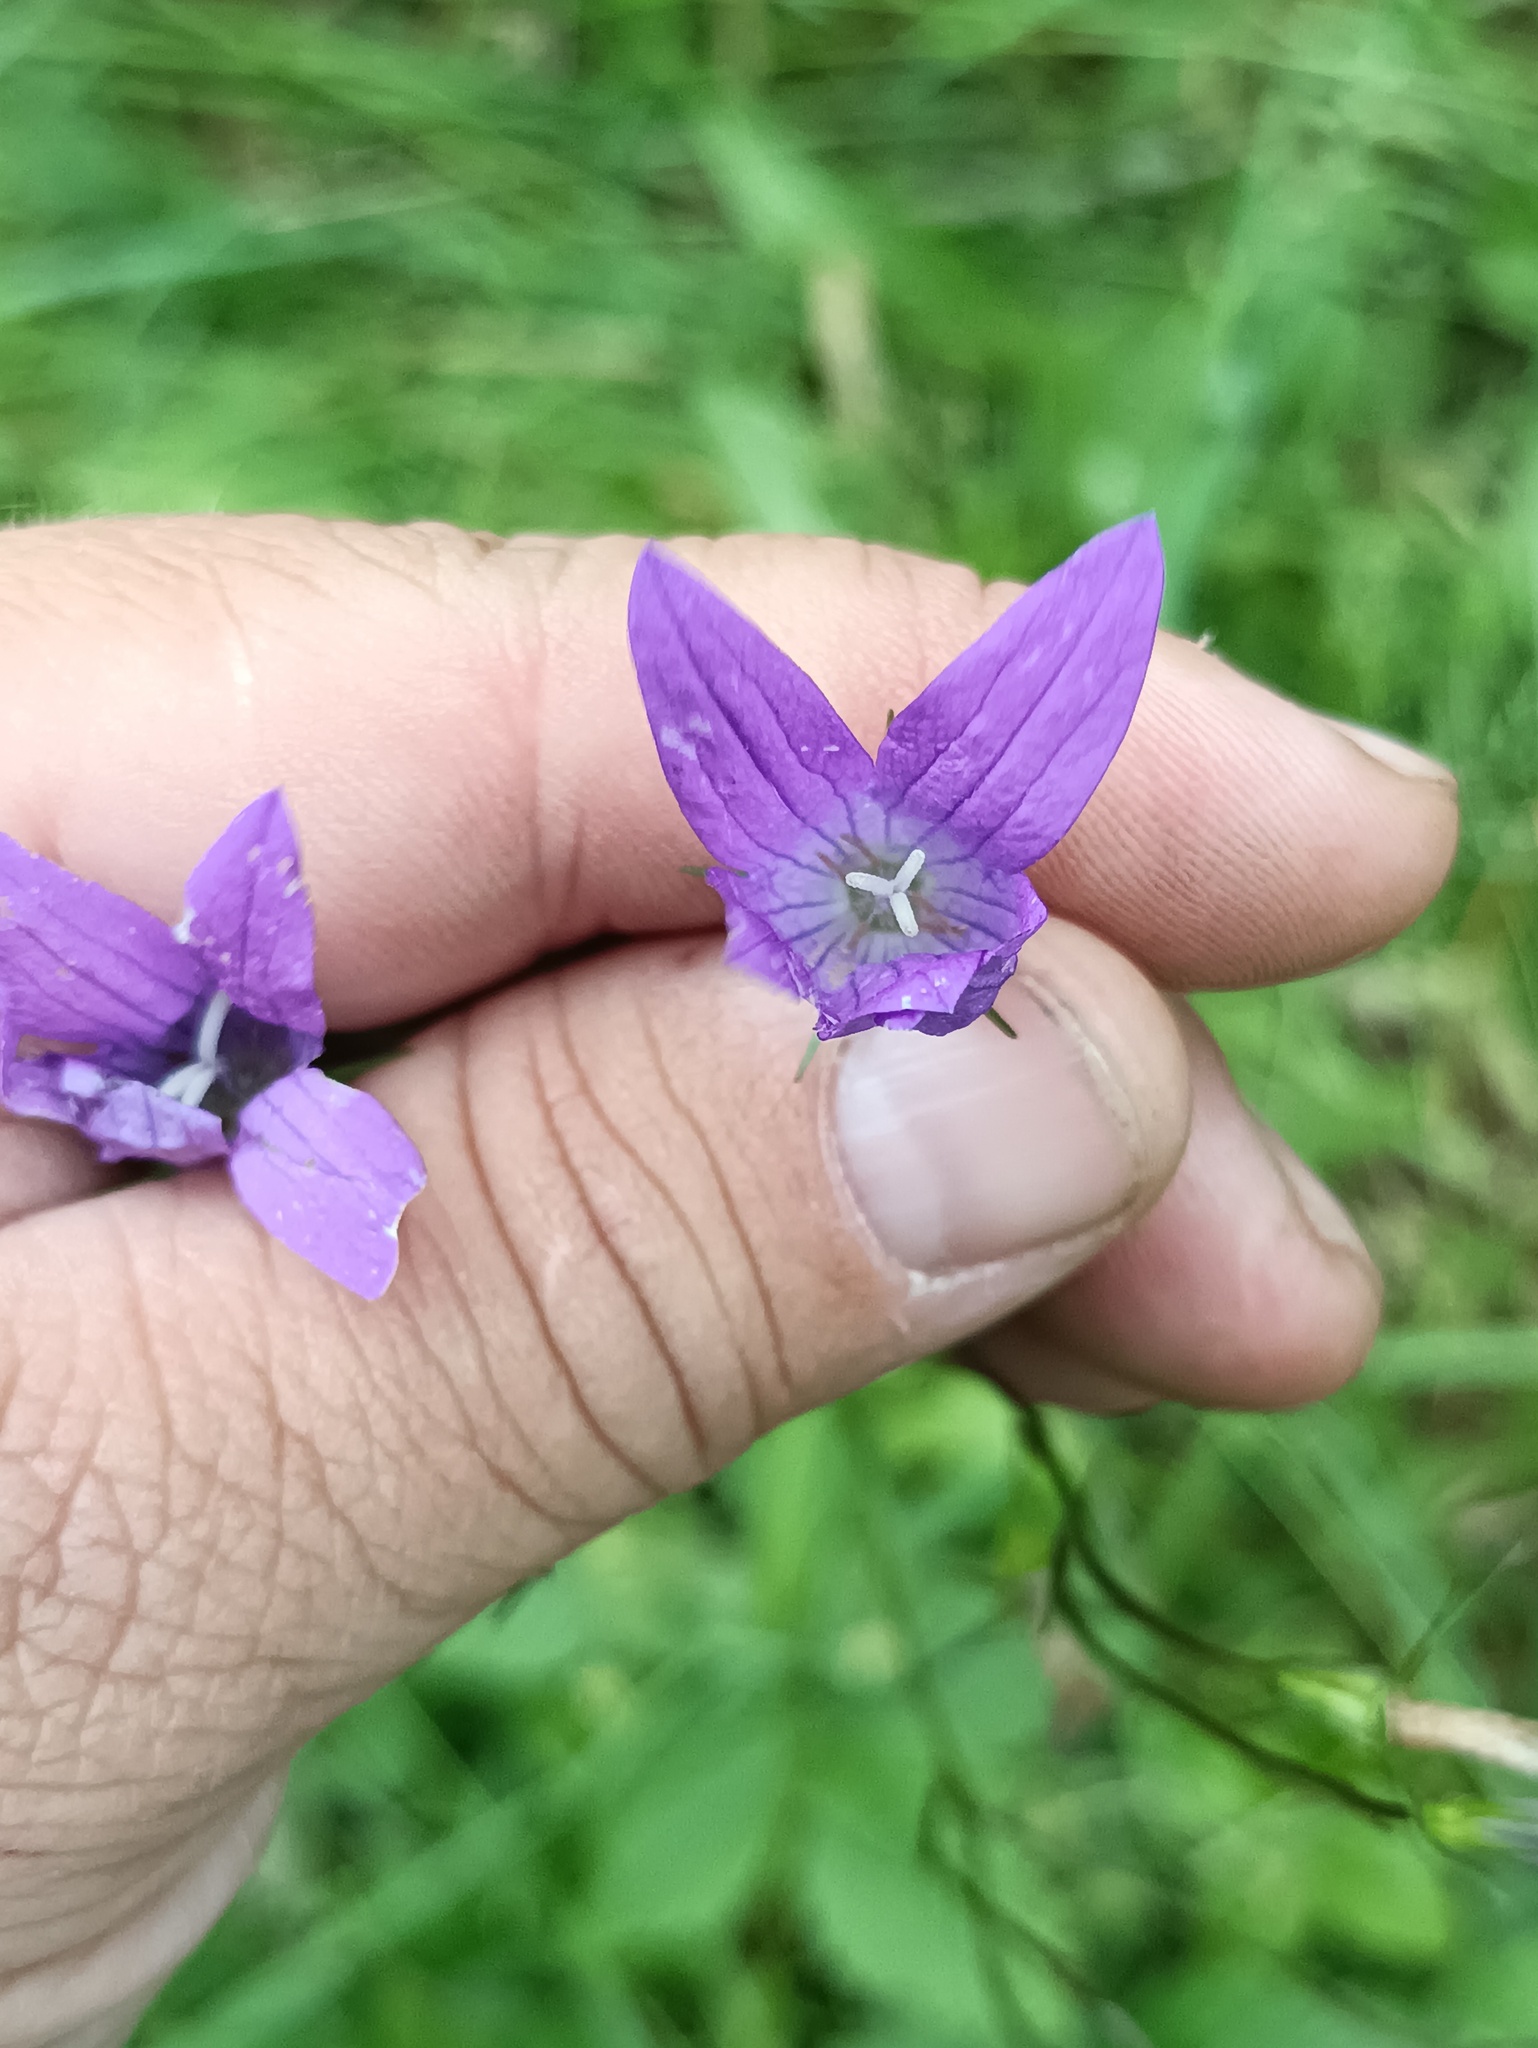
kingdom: Plantae
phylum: Tracheophyta
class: Magnoliopsida
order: Asterales
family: Campanulaceae
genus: Campanula
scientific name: Campanula patula
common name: Spreading bellflower
